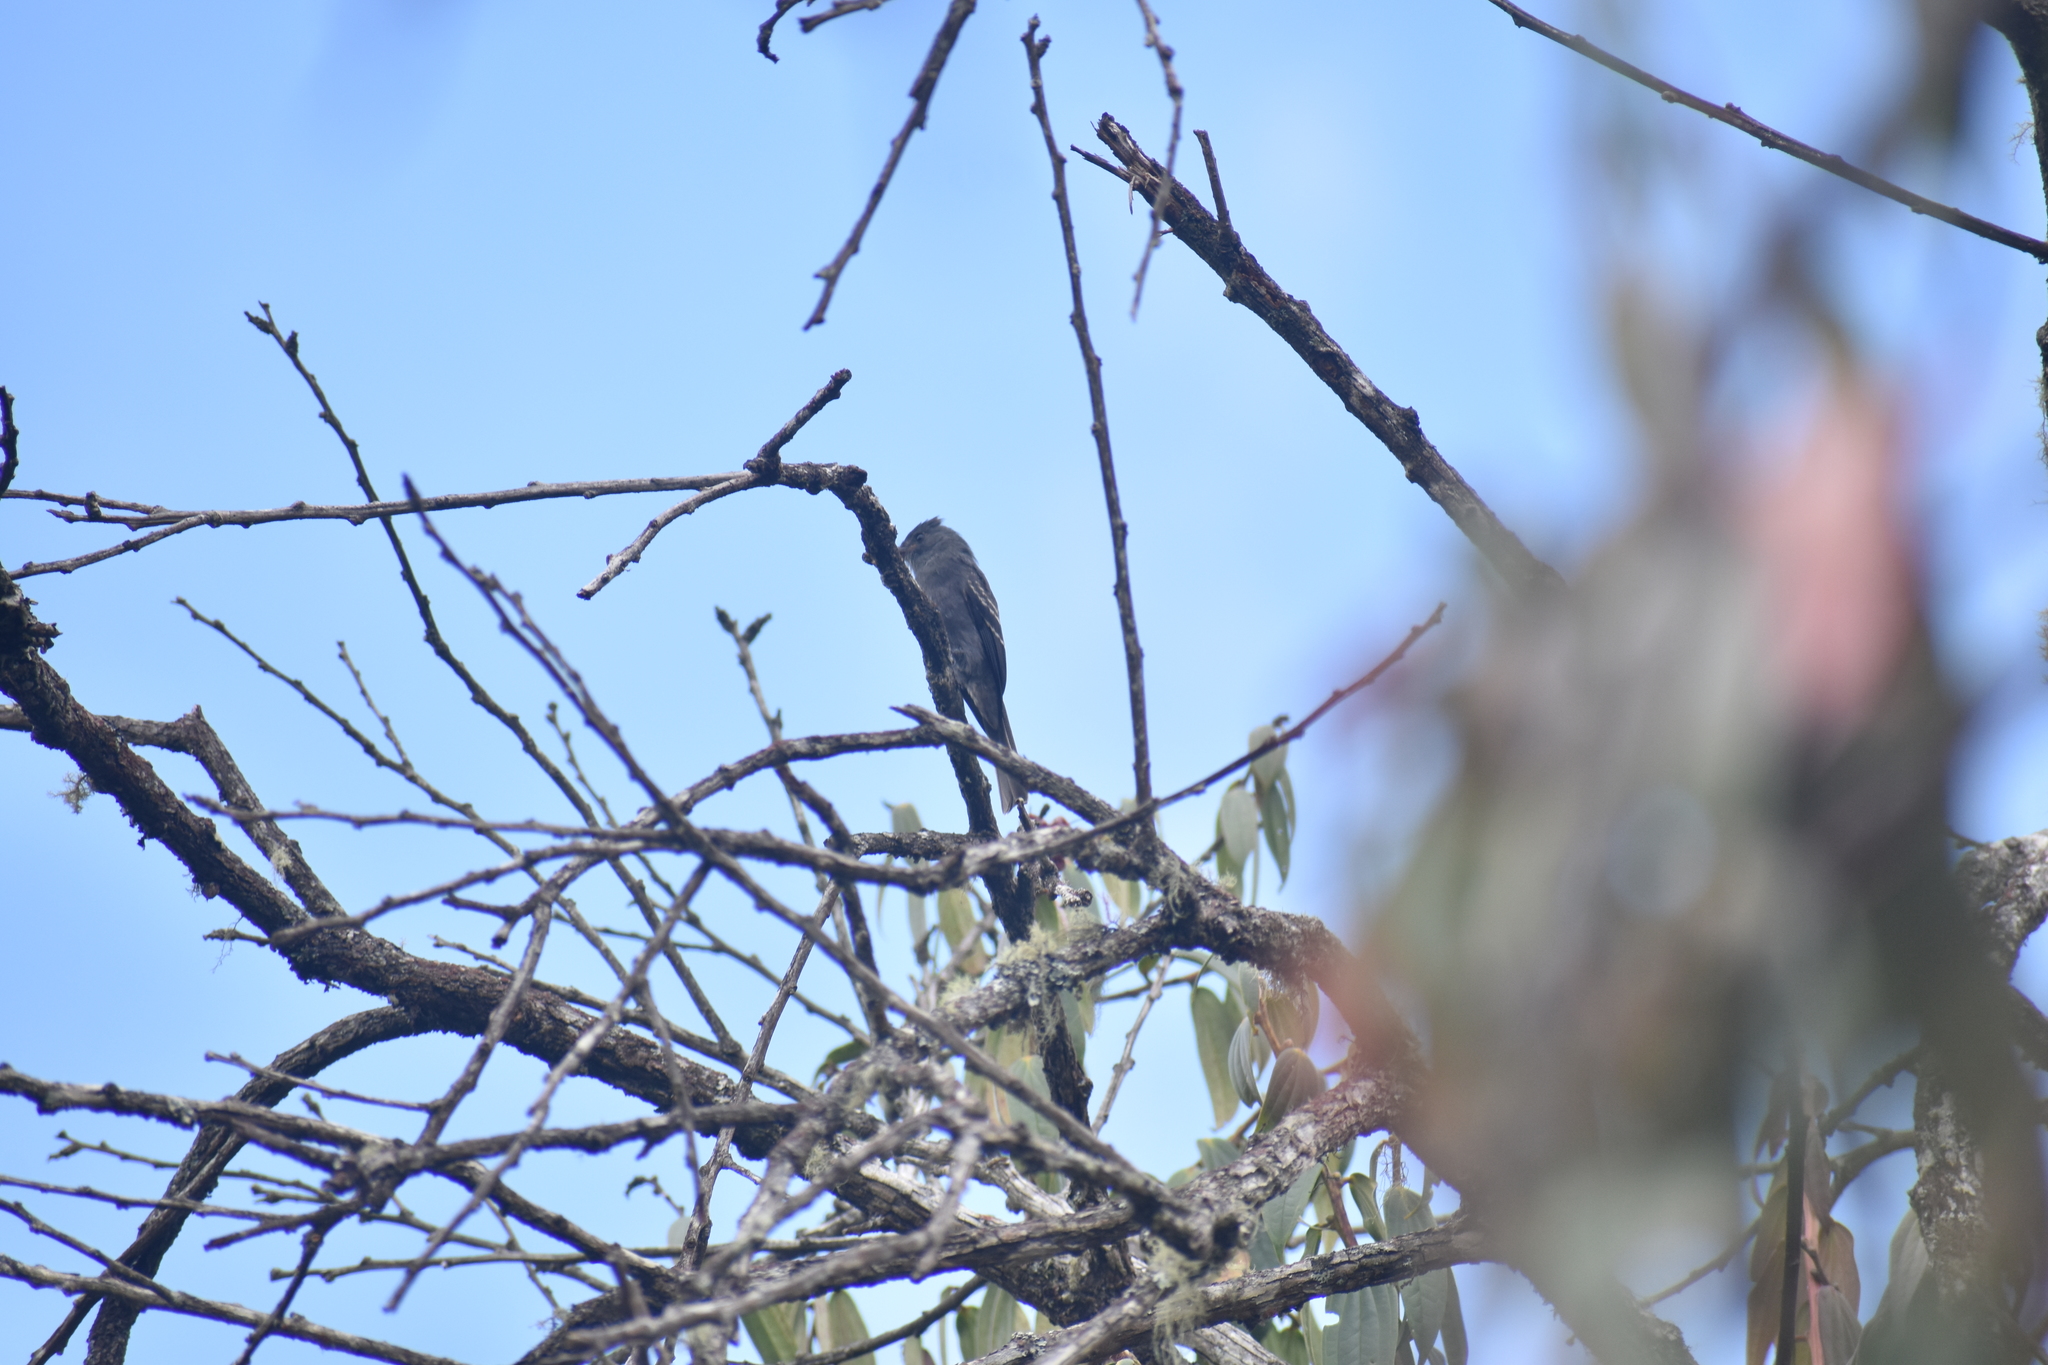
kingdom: Animalia
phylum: Chordata
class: Aves
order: Passeriformes
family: Tyrannidae
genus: Contopus
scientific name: Contopus fumigatus
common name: Smoke-colored pewee
